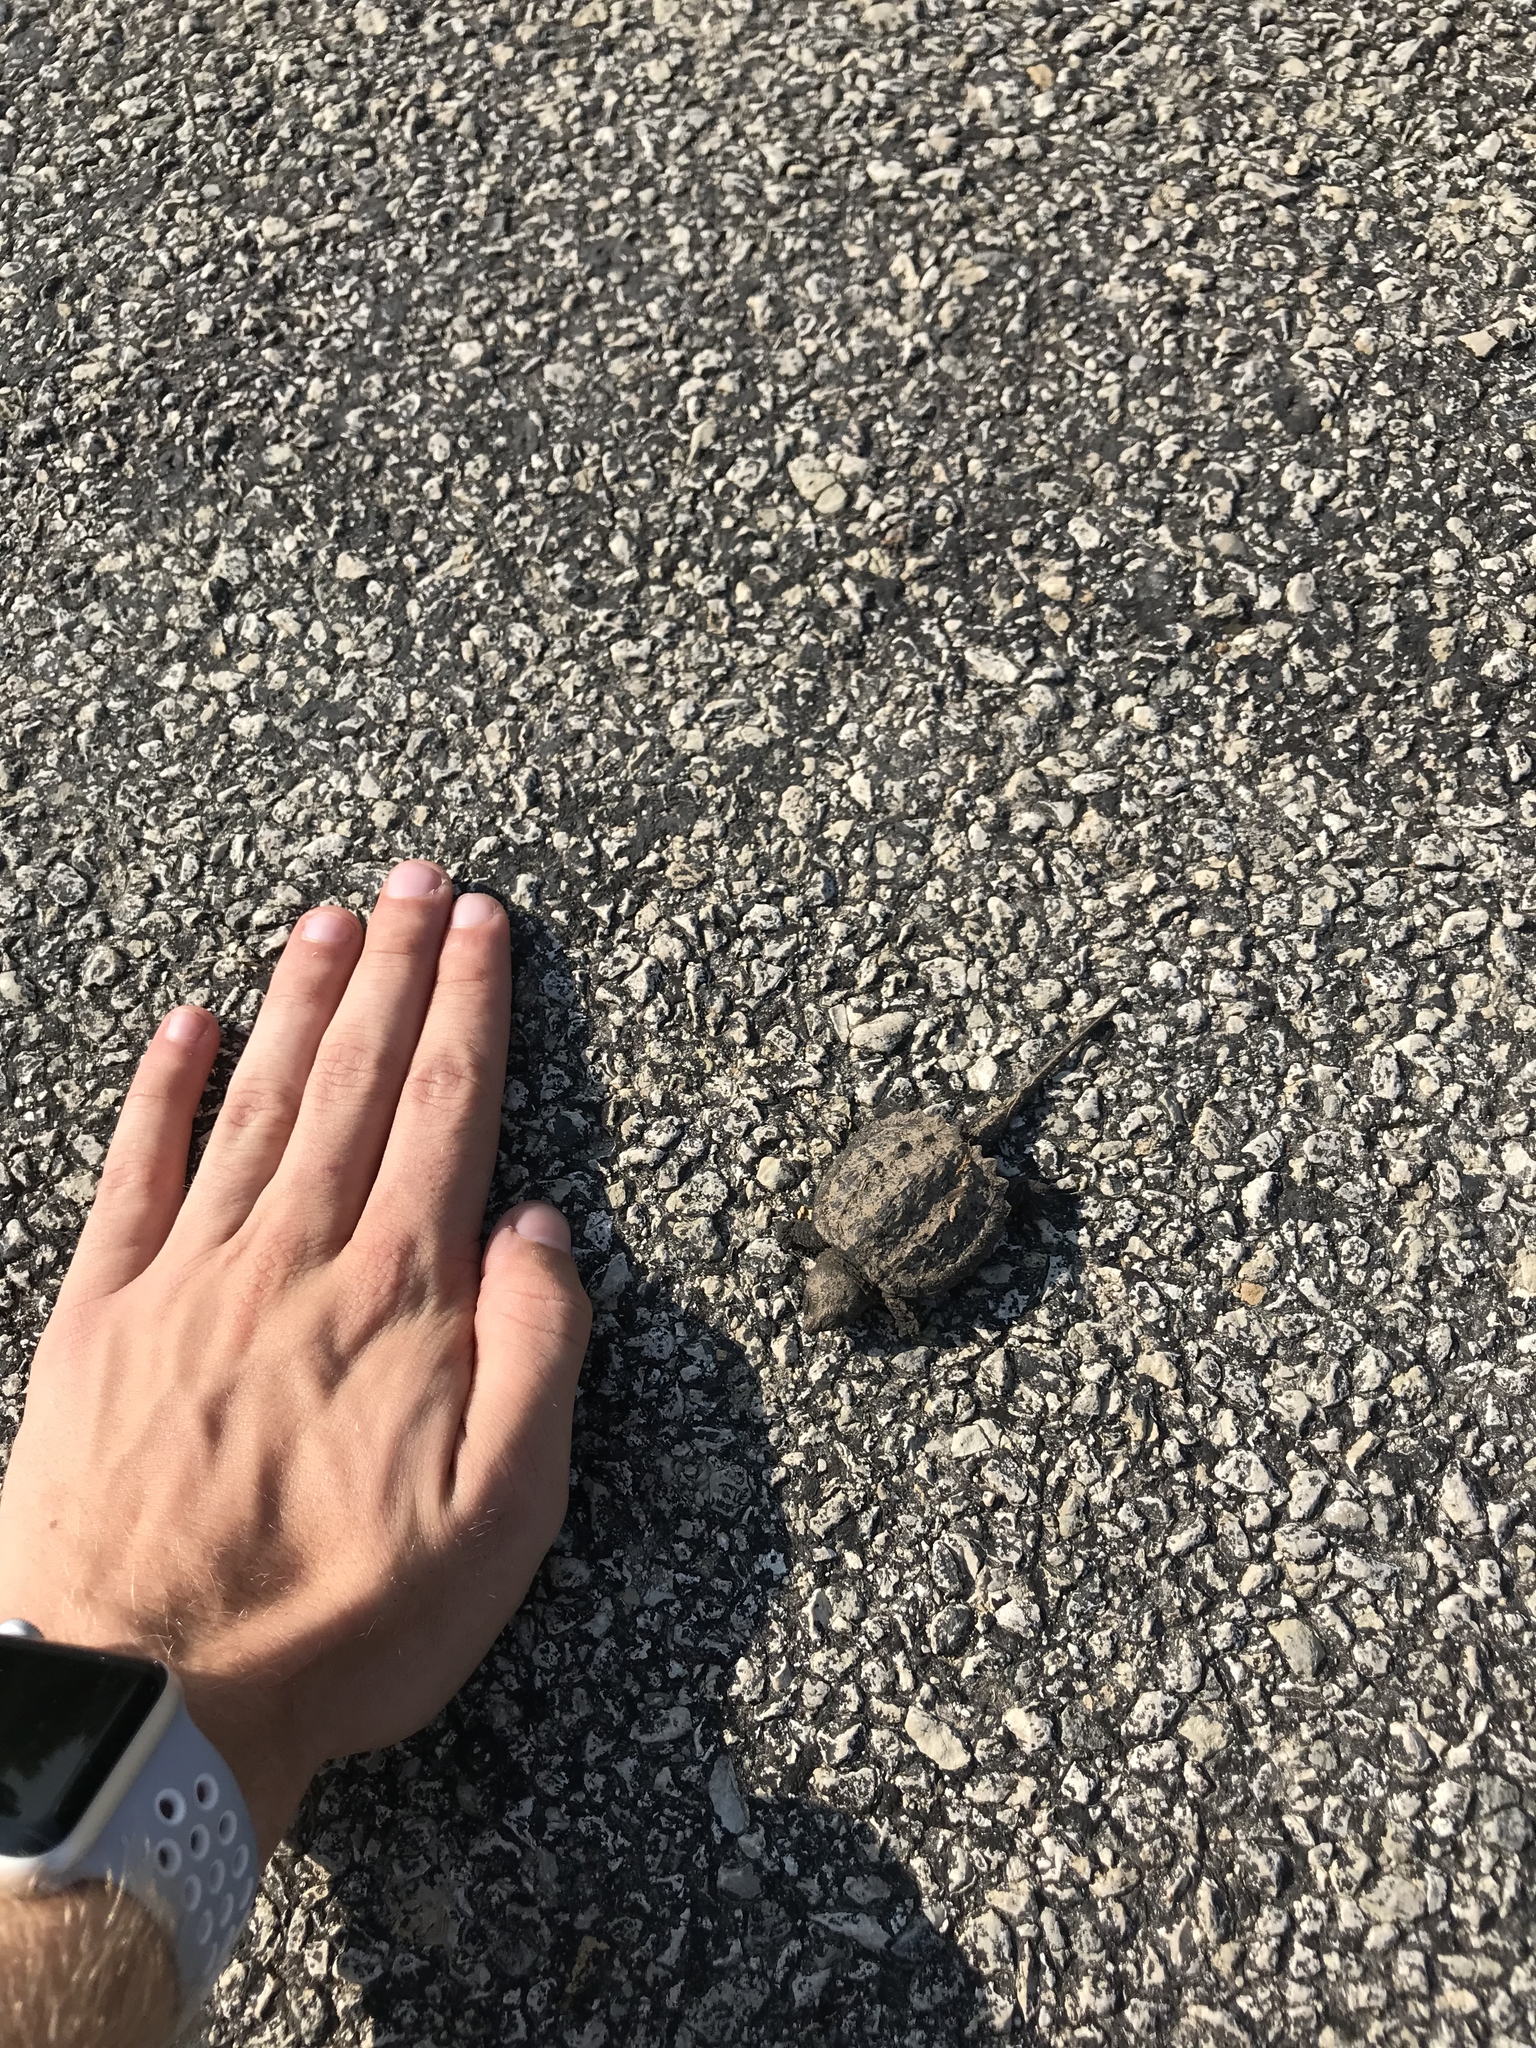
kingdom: Animalia
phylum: Chordata
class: Testudines
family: Chelydridae
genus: Chelydra
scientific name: Chelydra serpentina
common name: Common snapping turtle
